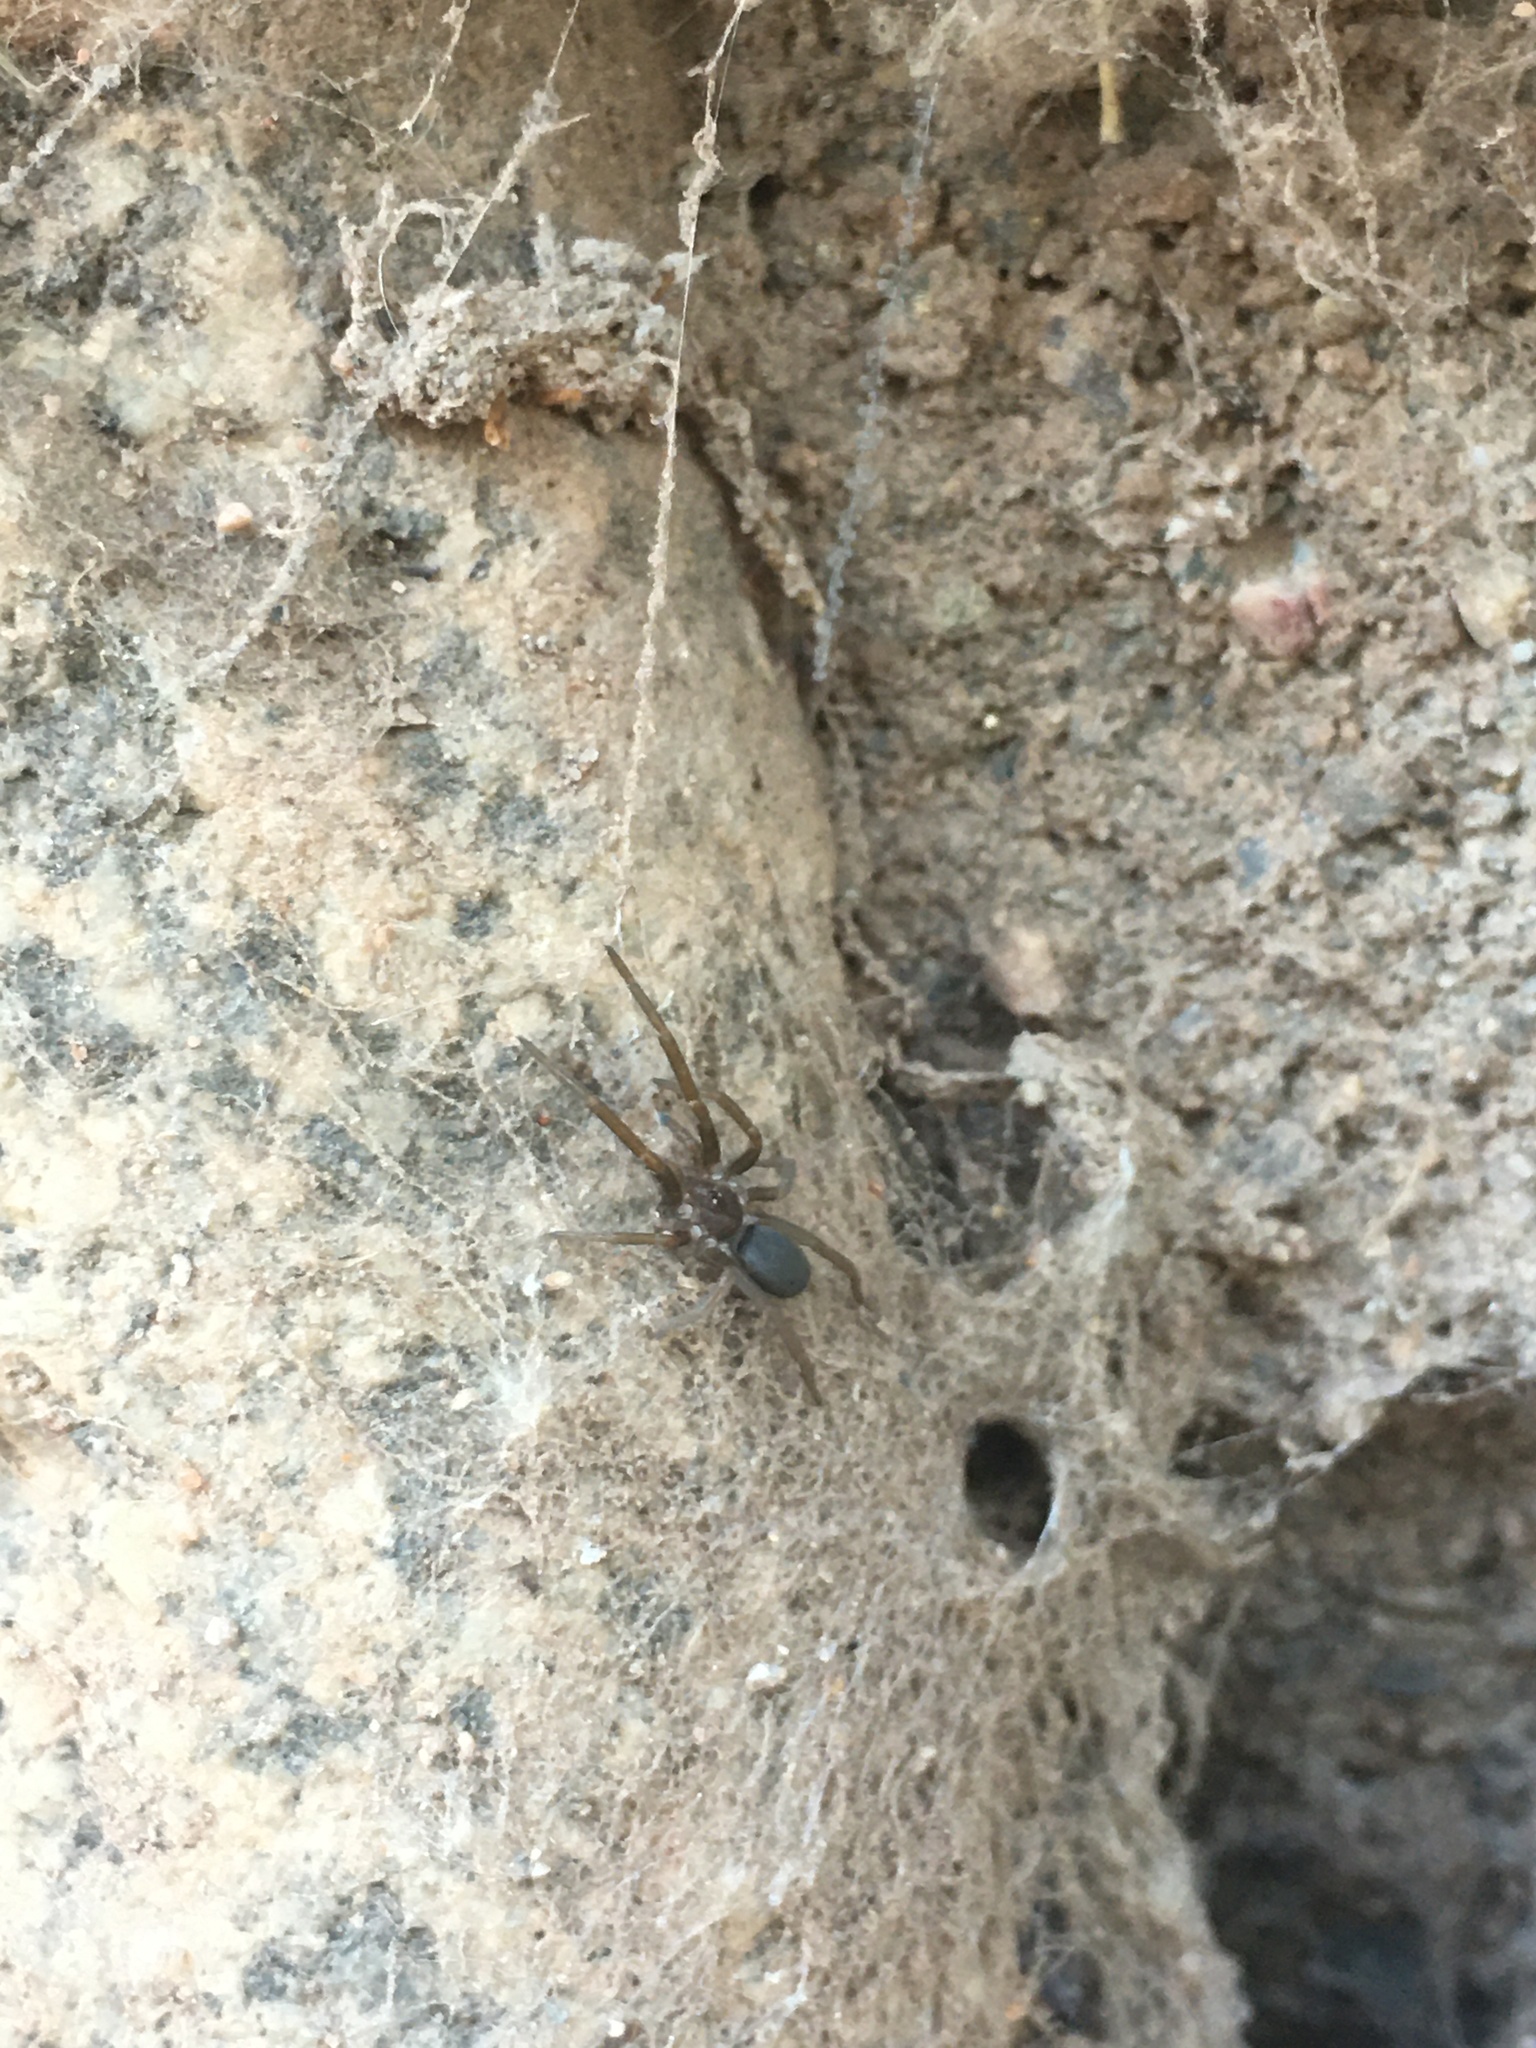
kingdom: Animalia
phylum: Arthropoda
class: Arachnida
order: Araneae
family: Filistatidae
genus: Kukulcania
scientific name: Kukulcania hibernalis
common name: Crevice weaver
